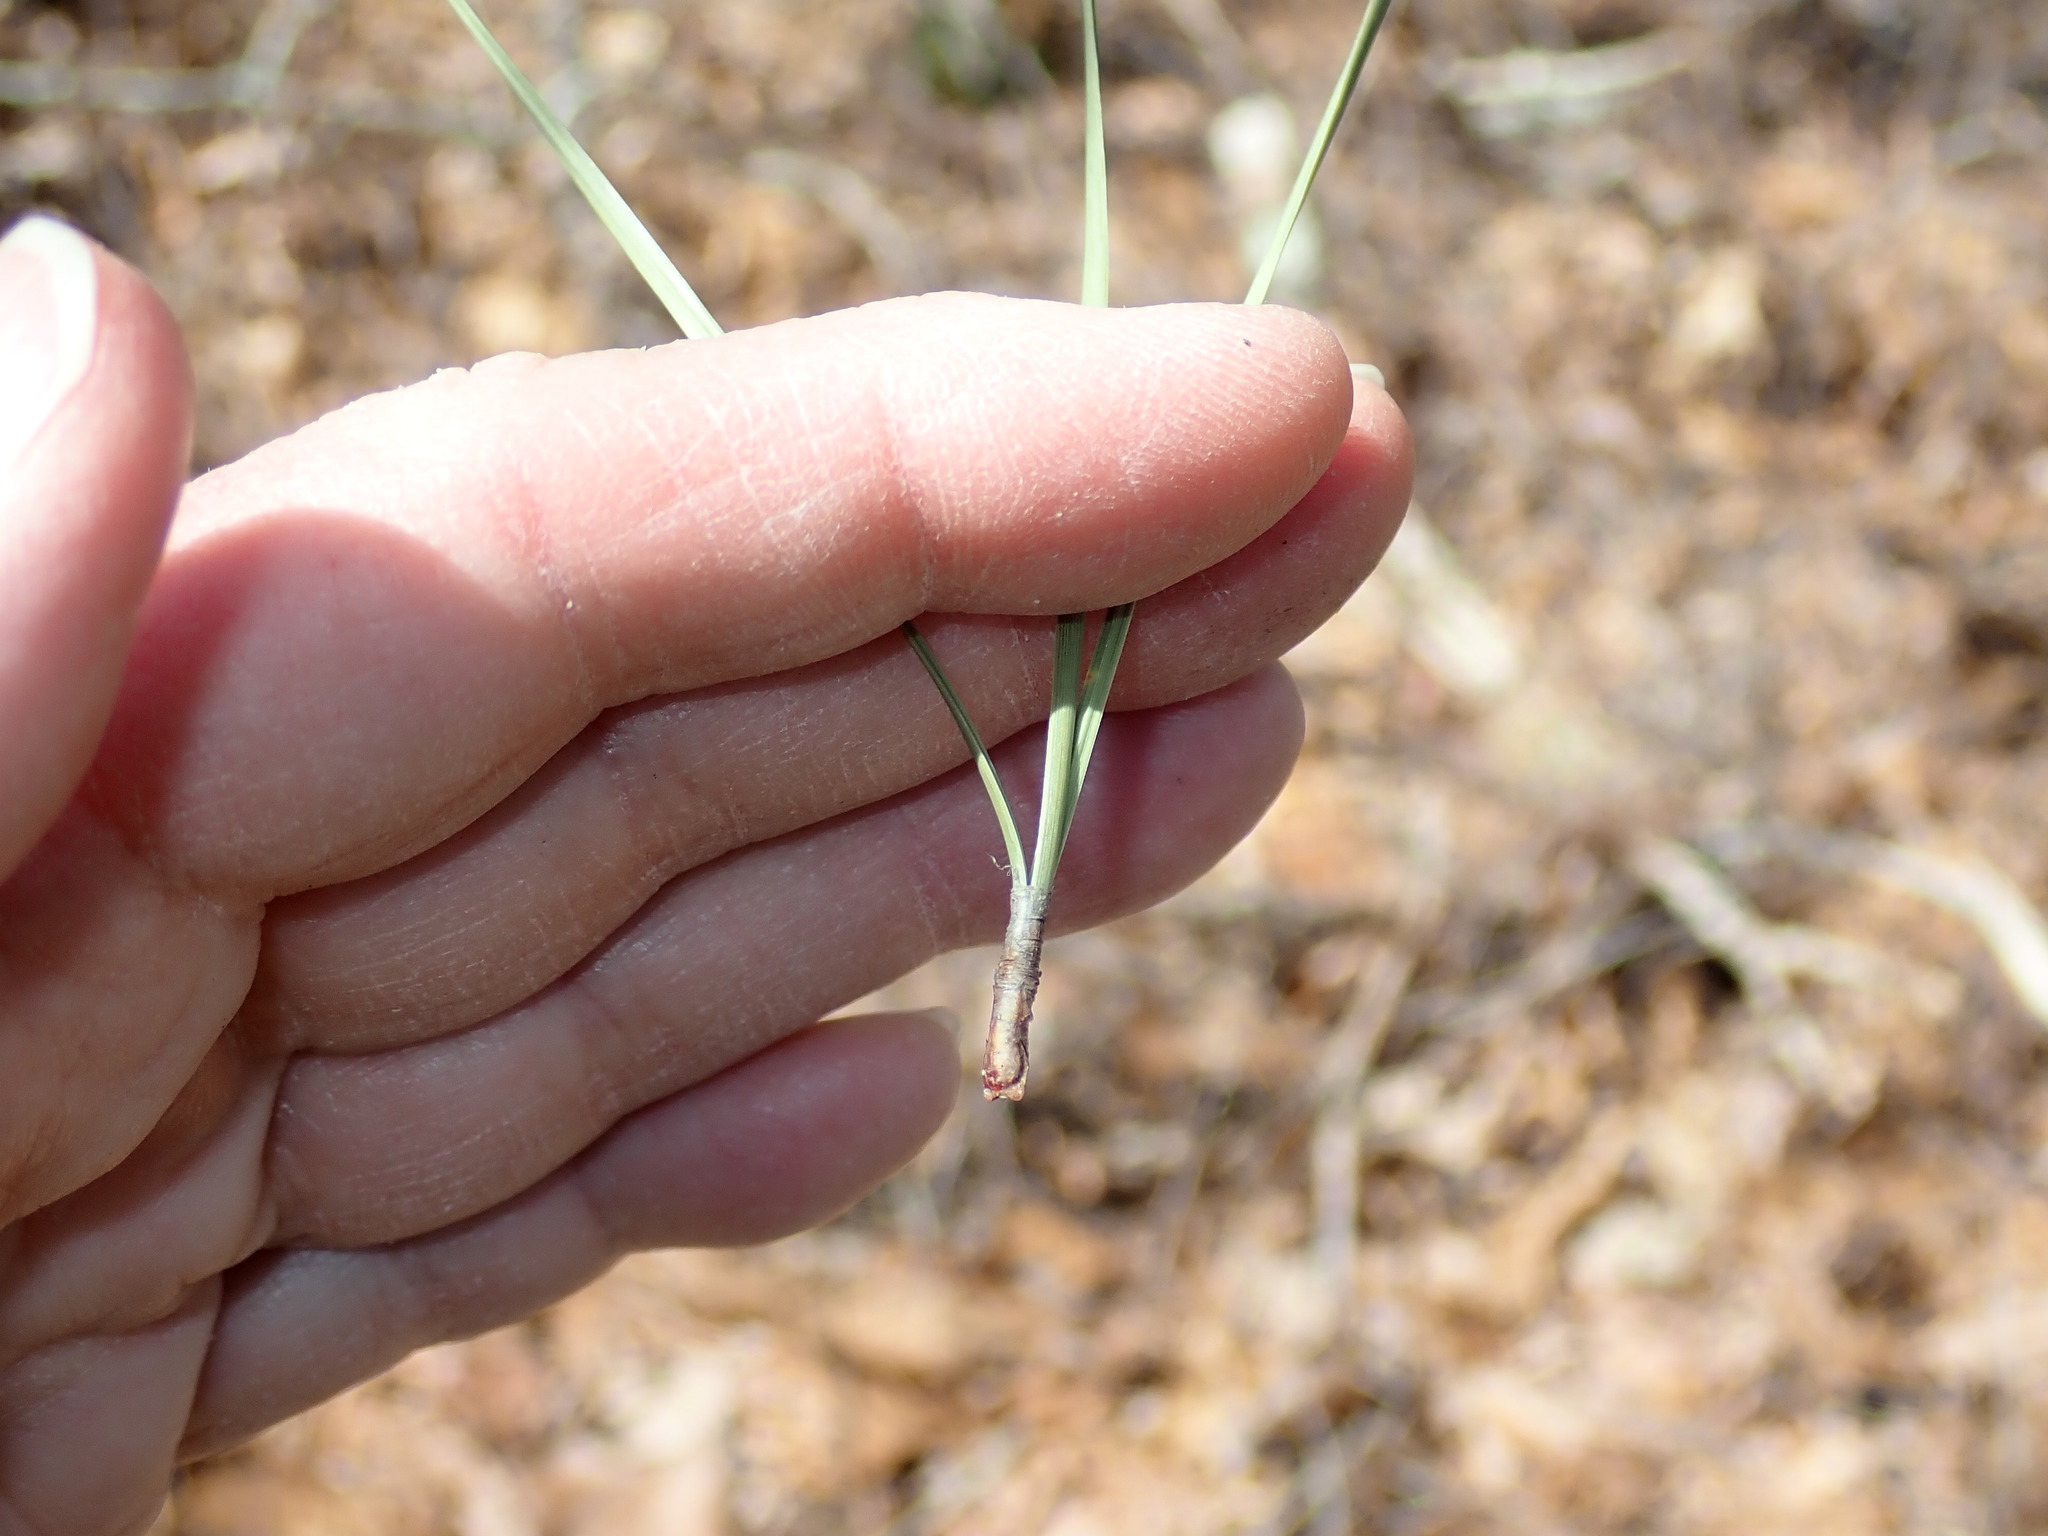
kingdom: Plantae
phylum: Tracheophyta
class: Pinopsida
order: Pinales
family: Pinaceae
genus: Pinus
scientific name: Pinus rigida
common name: Pitch pine
